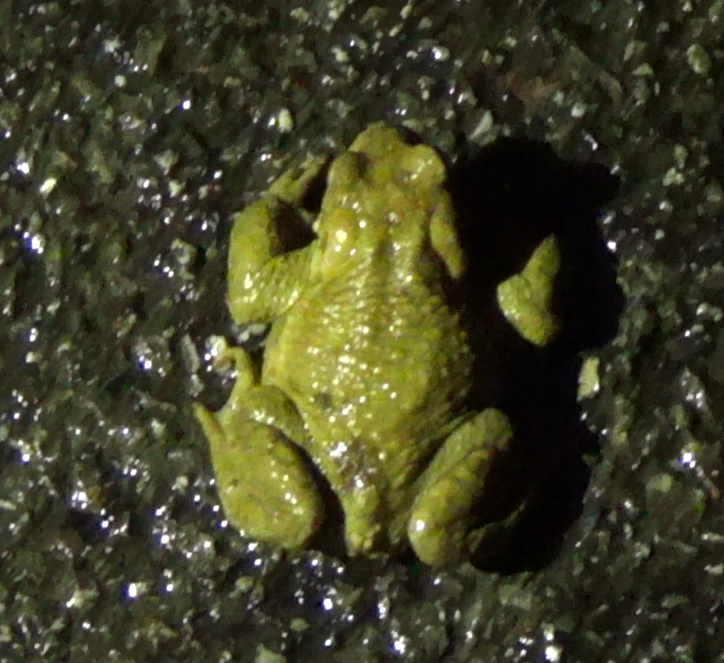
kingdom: Animalia
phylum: Chordata
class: Amphibia
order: Anura
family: Bufonidae
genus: Bufo
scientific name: Bufo spinosus
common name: Western common toad
